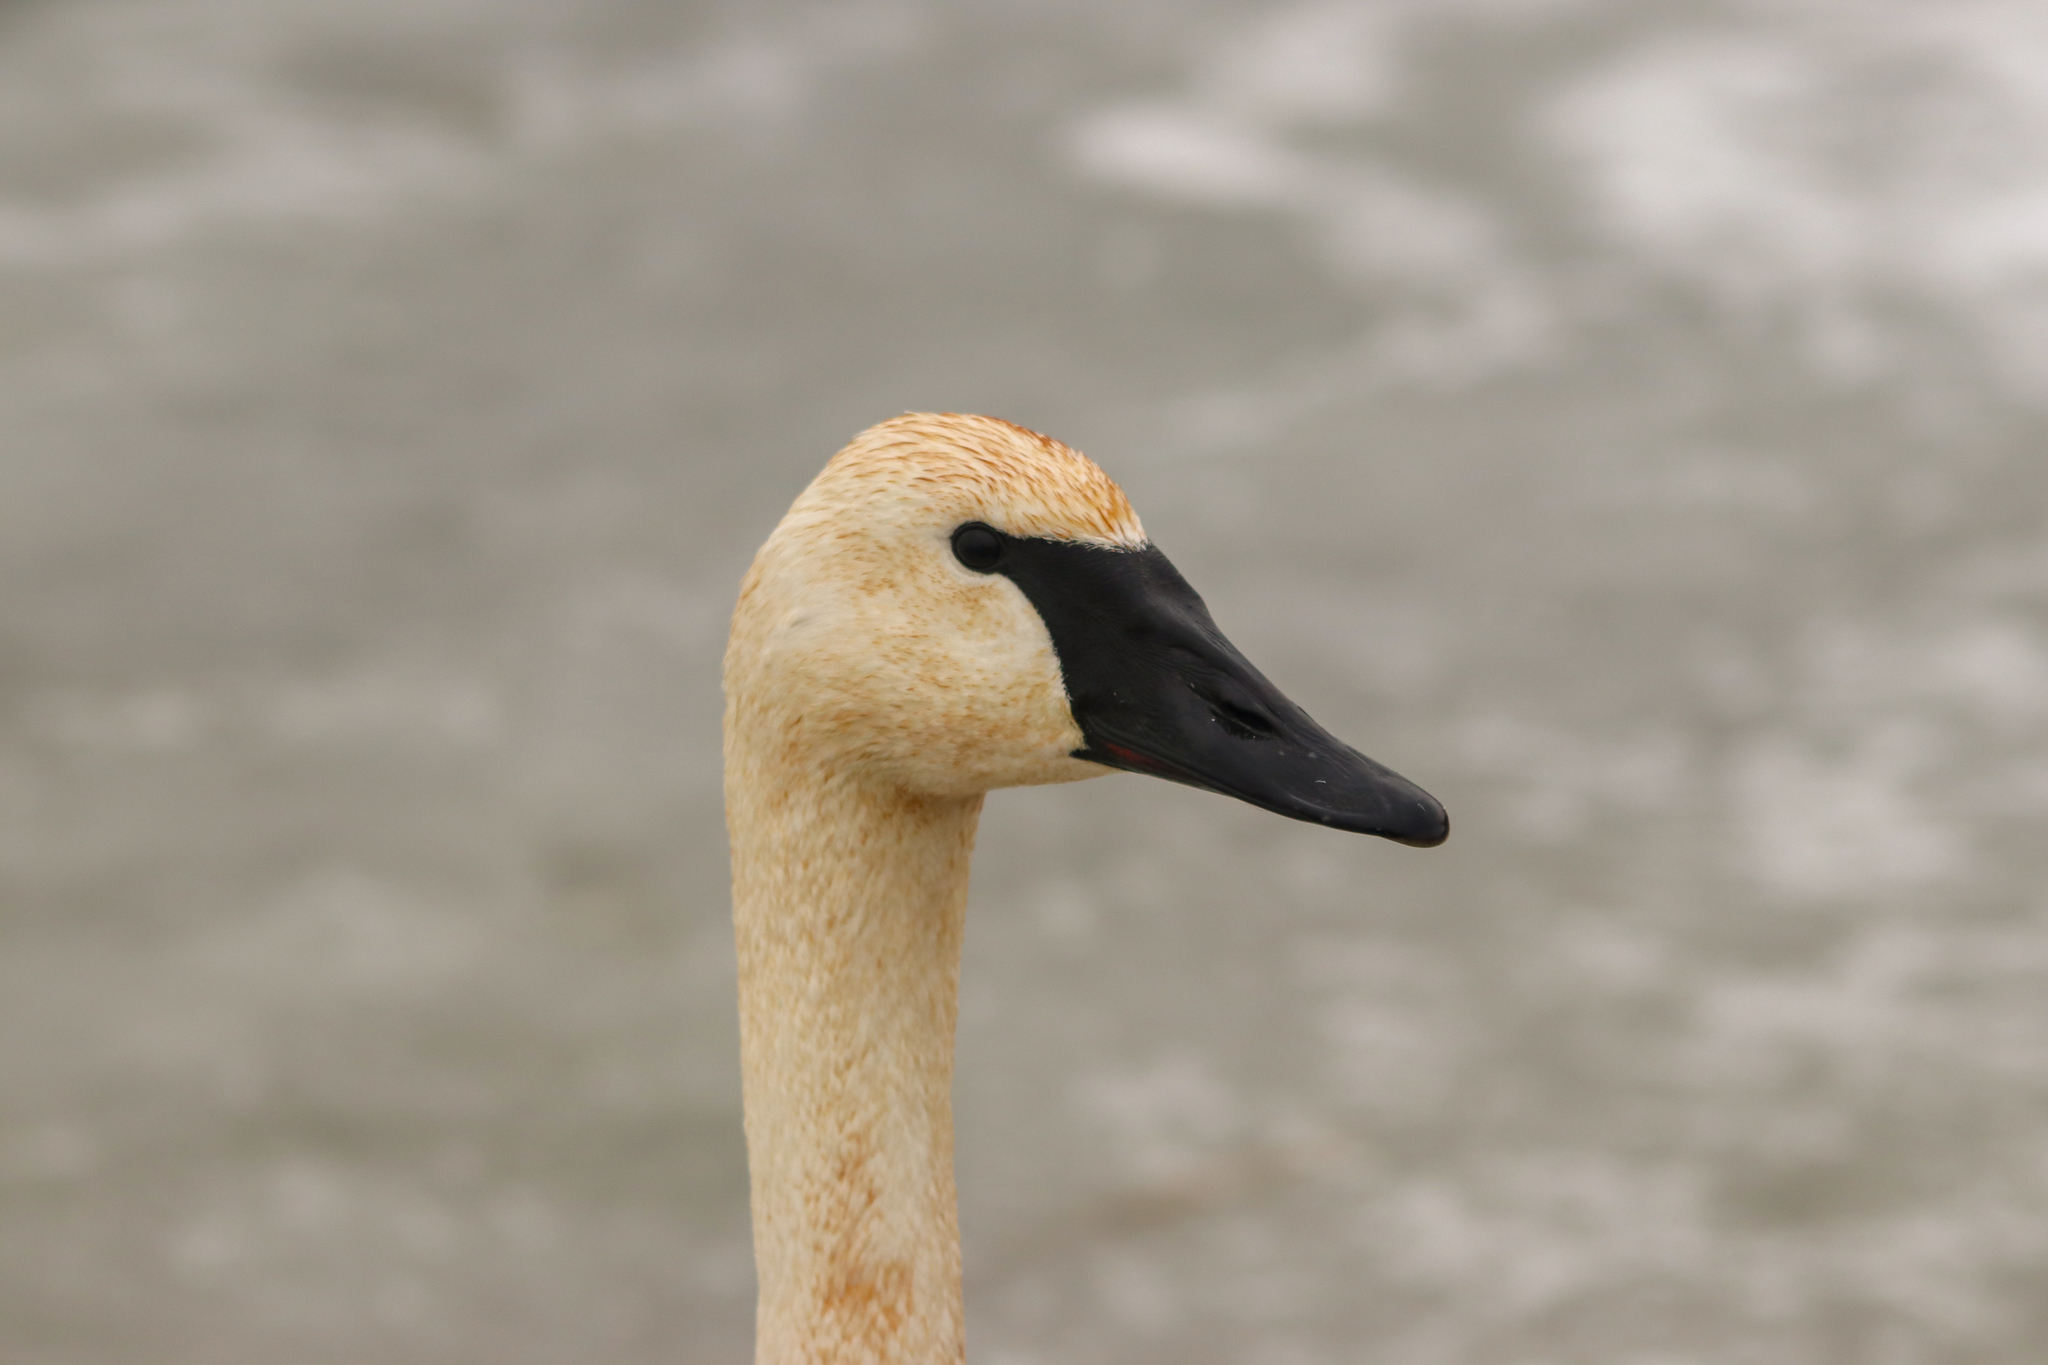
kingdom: Animalia
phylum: Chordata
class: Aves
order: Anseriformes
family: Anatidae
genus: Cygnus
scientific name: Cygnus buccinator
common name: Trumpeter swan
